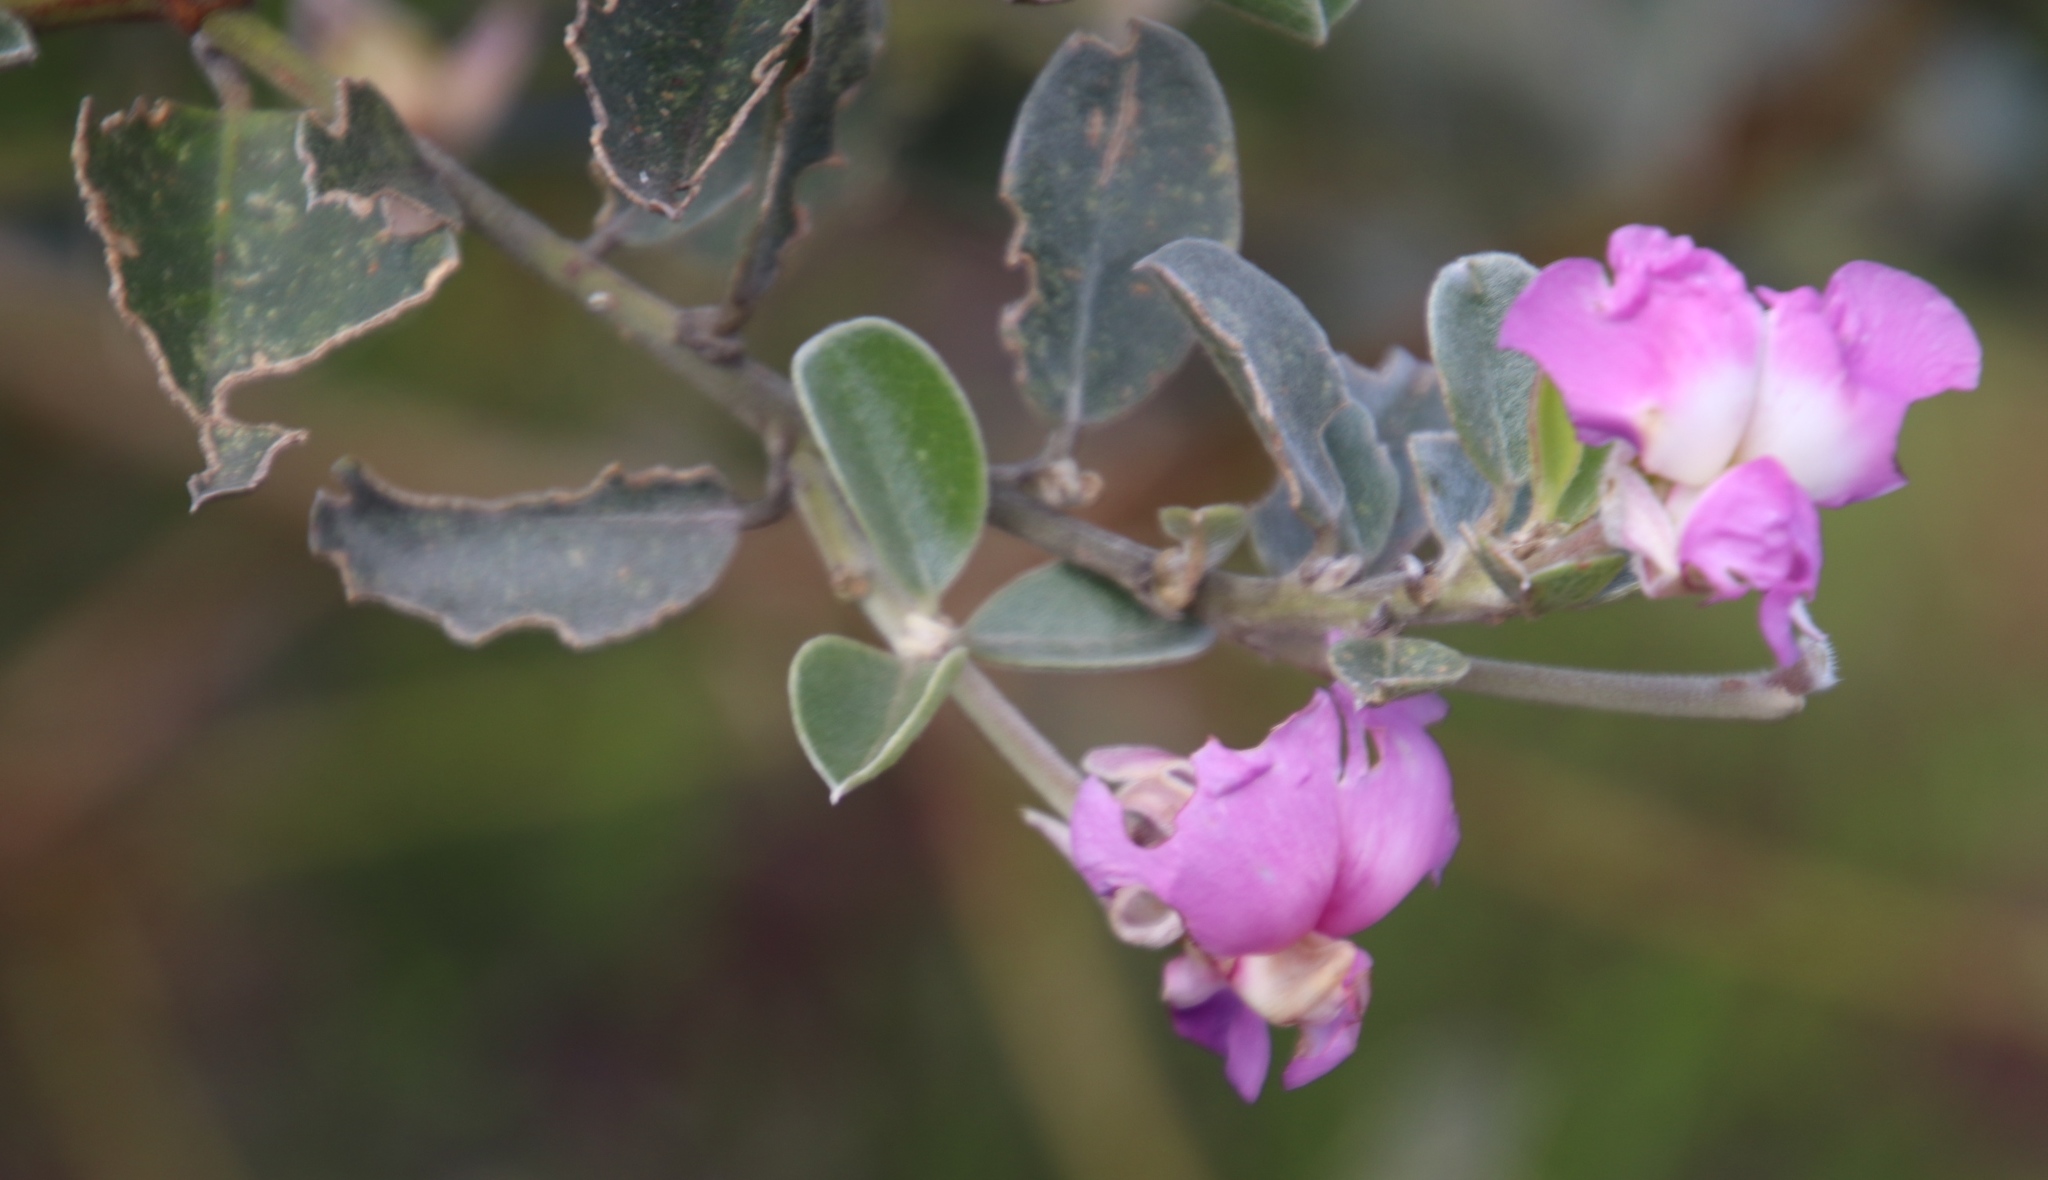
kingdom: Plantae
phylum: Tracheophyta
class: Magnoliopsida
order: Fabales
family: Fabaceae
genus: Podalyria
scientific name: Podalyria calyptrata
